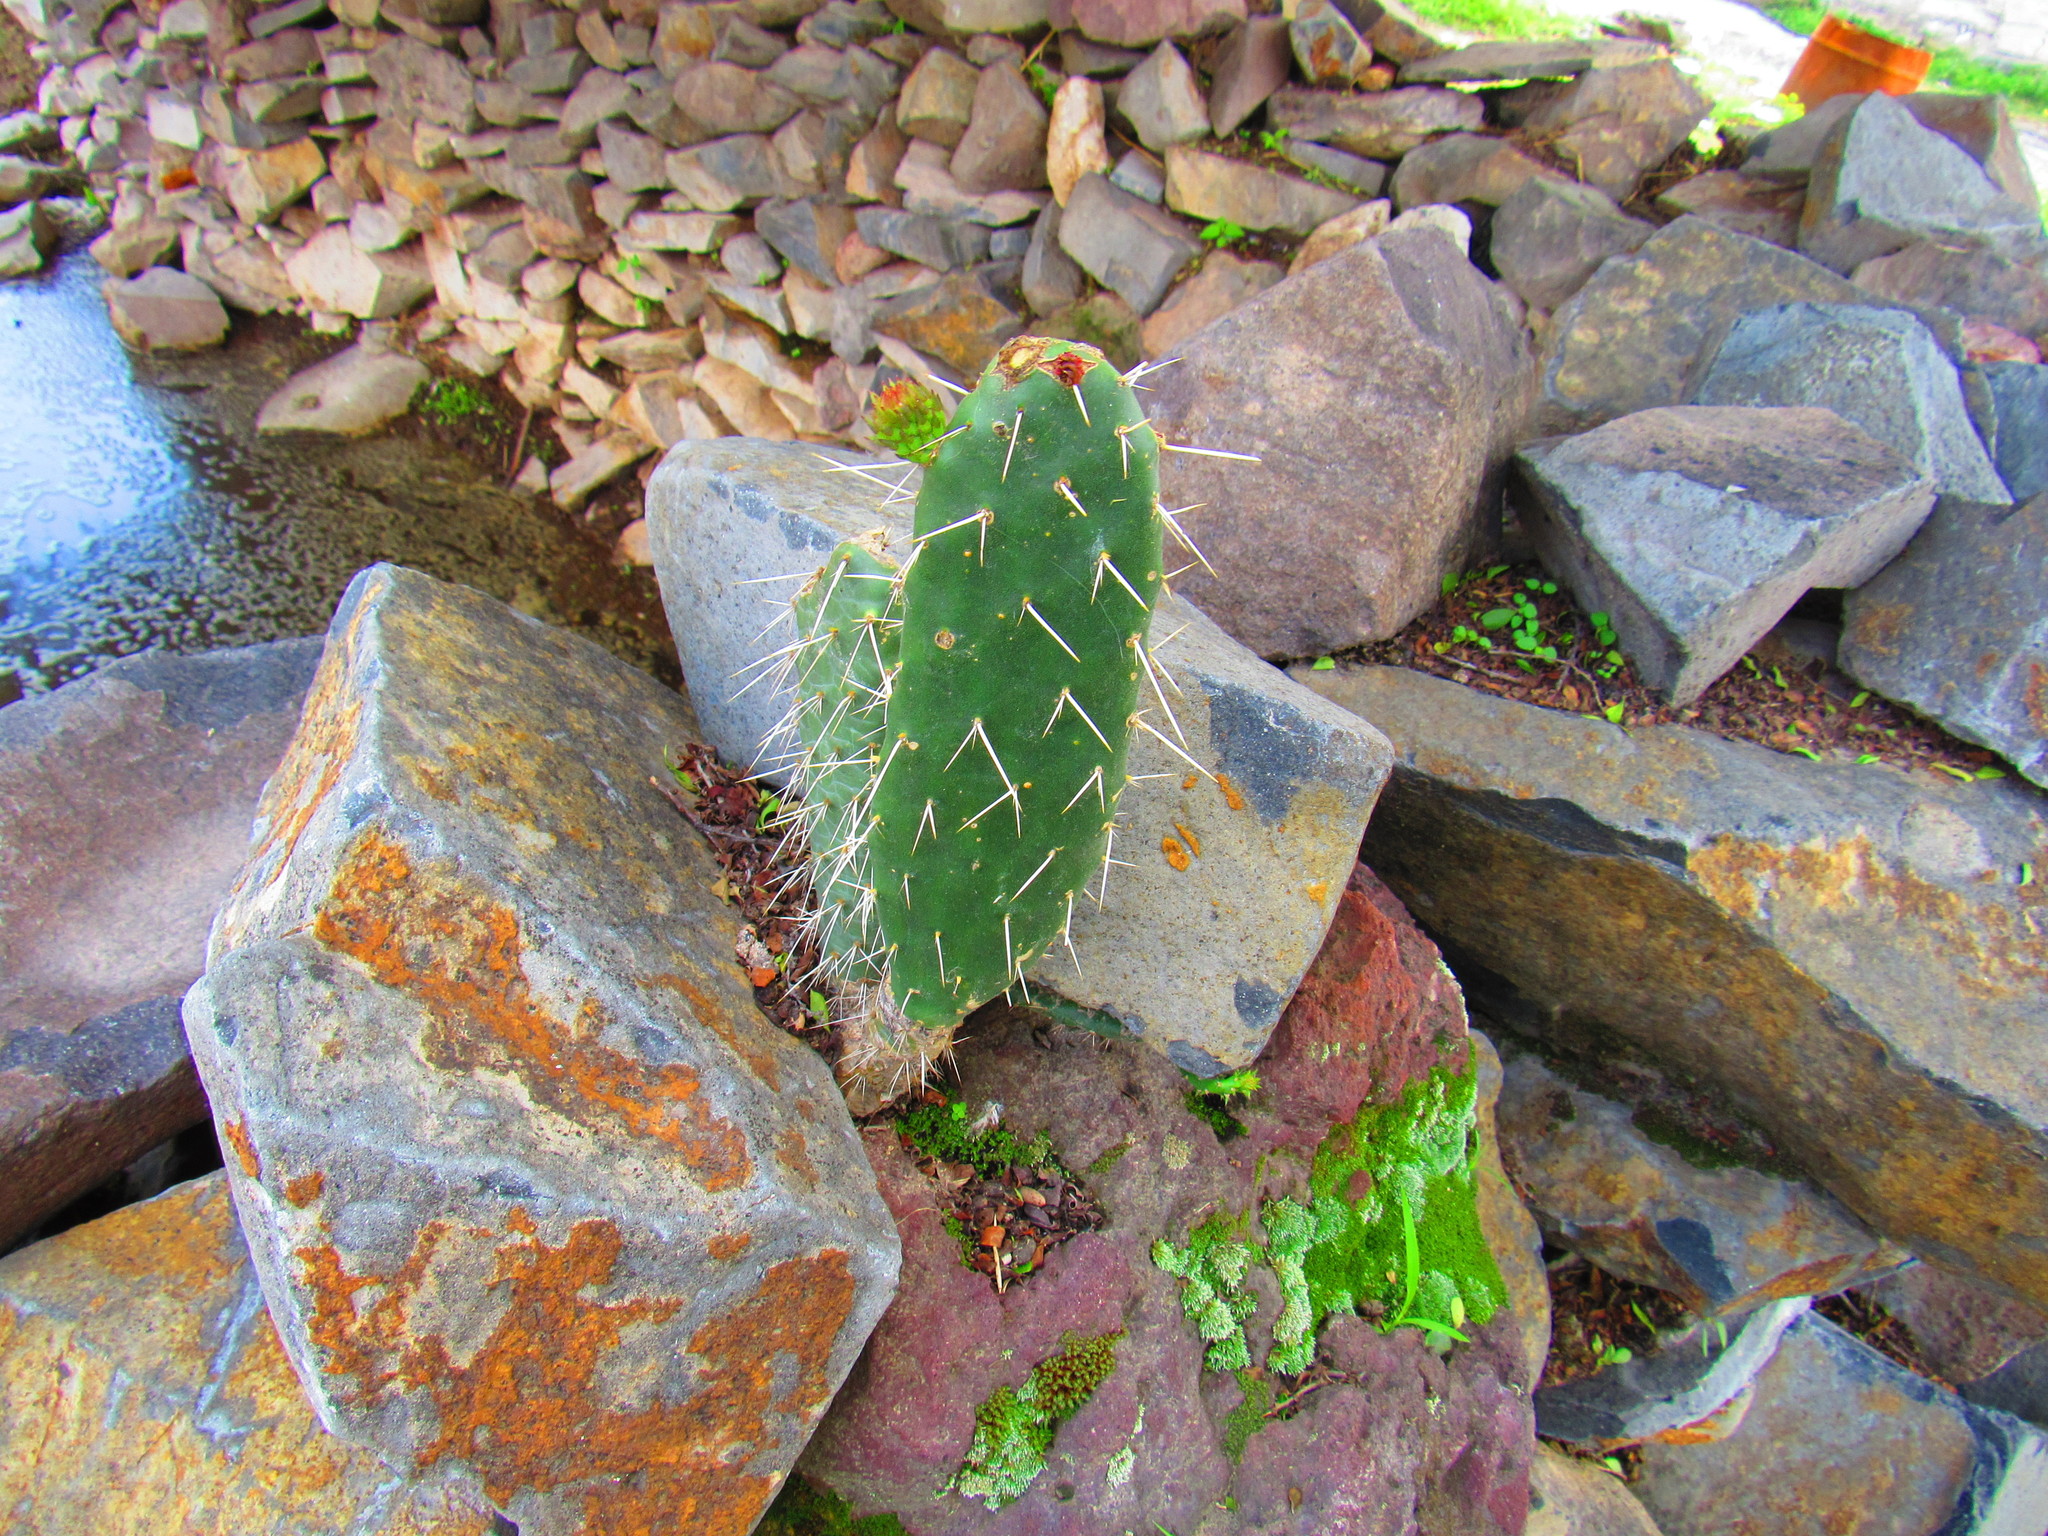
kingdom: Plantae
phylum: Tracheophyta
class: Magnoliopsida
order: Caryophyllales
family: Cactaceae
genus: Opuntia
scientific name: Opuntia
